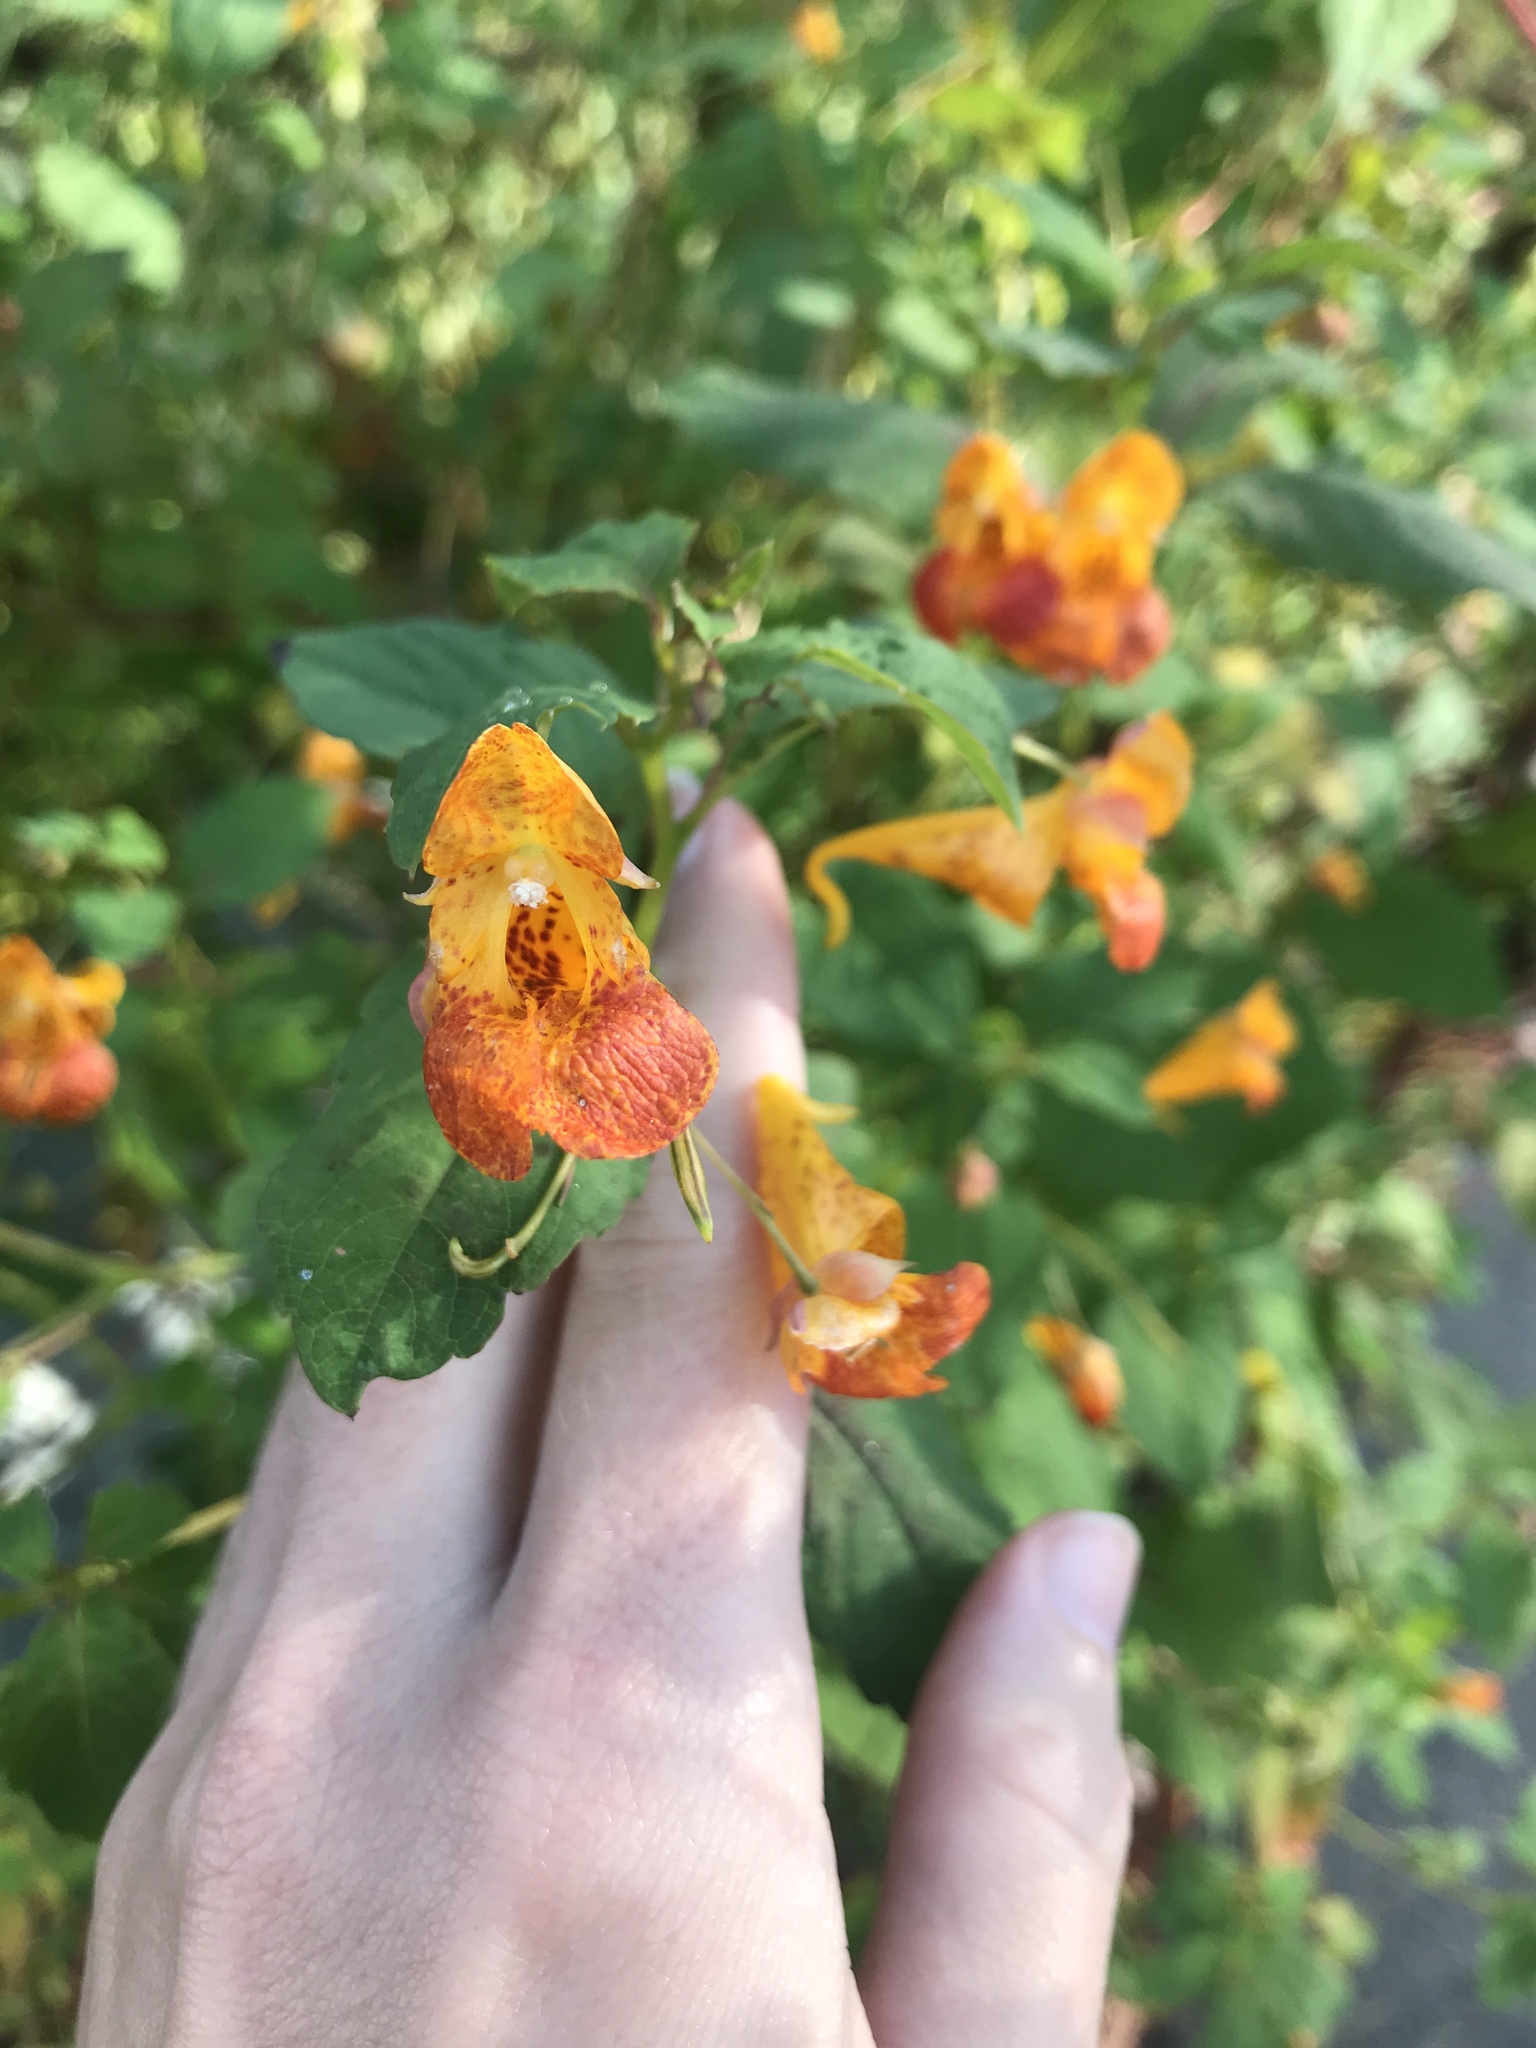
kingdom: Plantae
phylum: Tracheophyta
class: Magnoliopsida
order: Ericales
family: Balsaminaceae
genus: Impatiens
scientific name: Impatiens capensis
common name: Orange balsam
